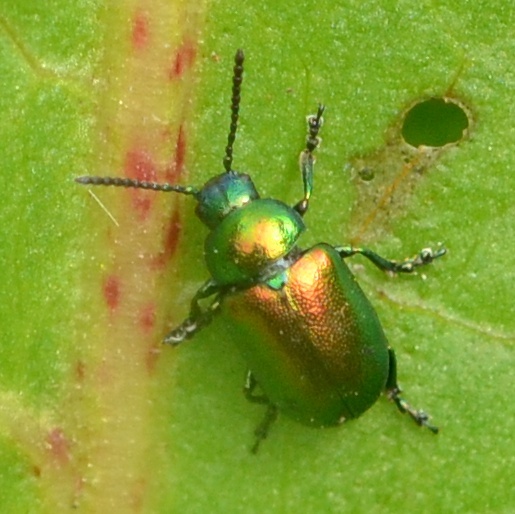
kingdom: Animalia
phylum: Arthropoda
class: Insecta
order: Coleoptera
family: Chrysomelidae
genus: Gastrophysa
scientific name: Gastrophysa viridula
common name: Green dock beetle
